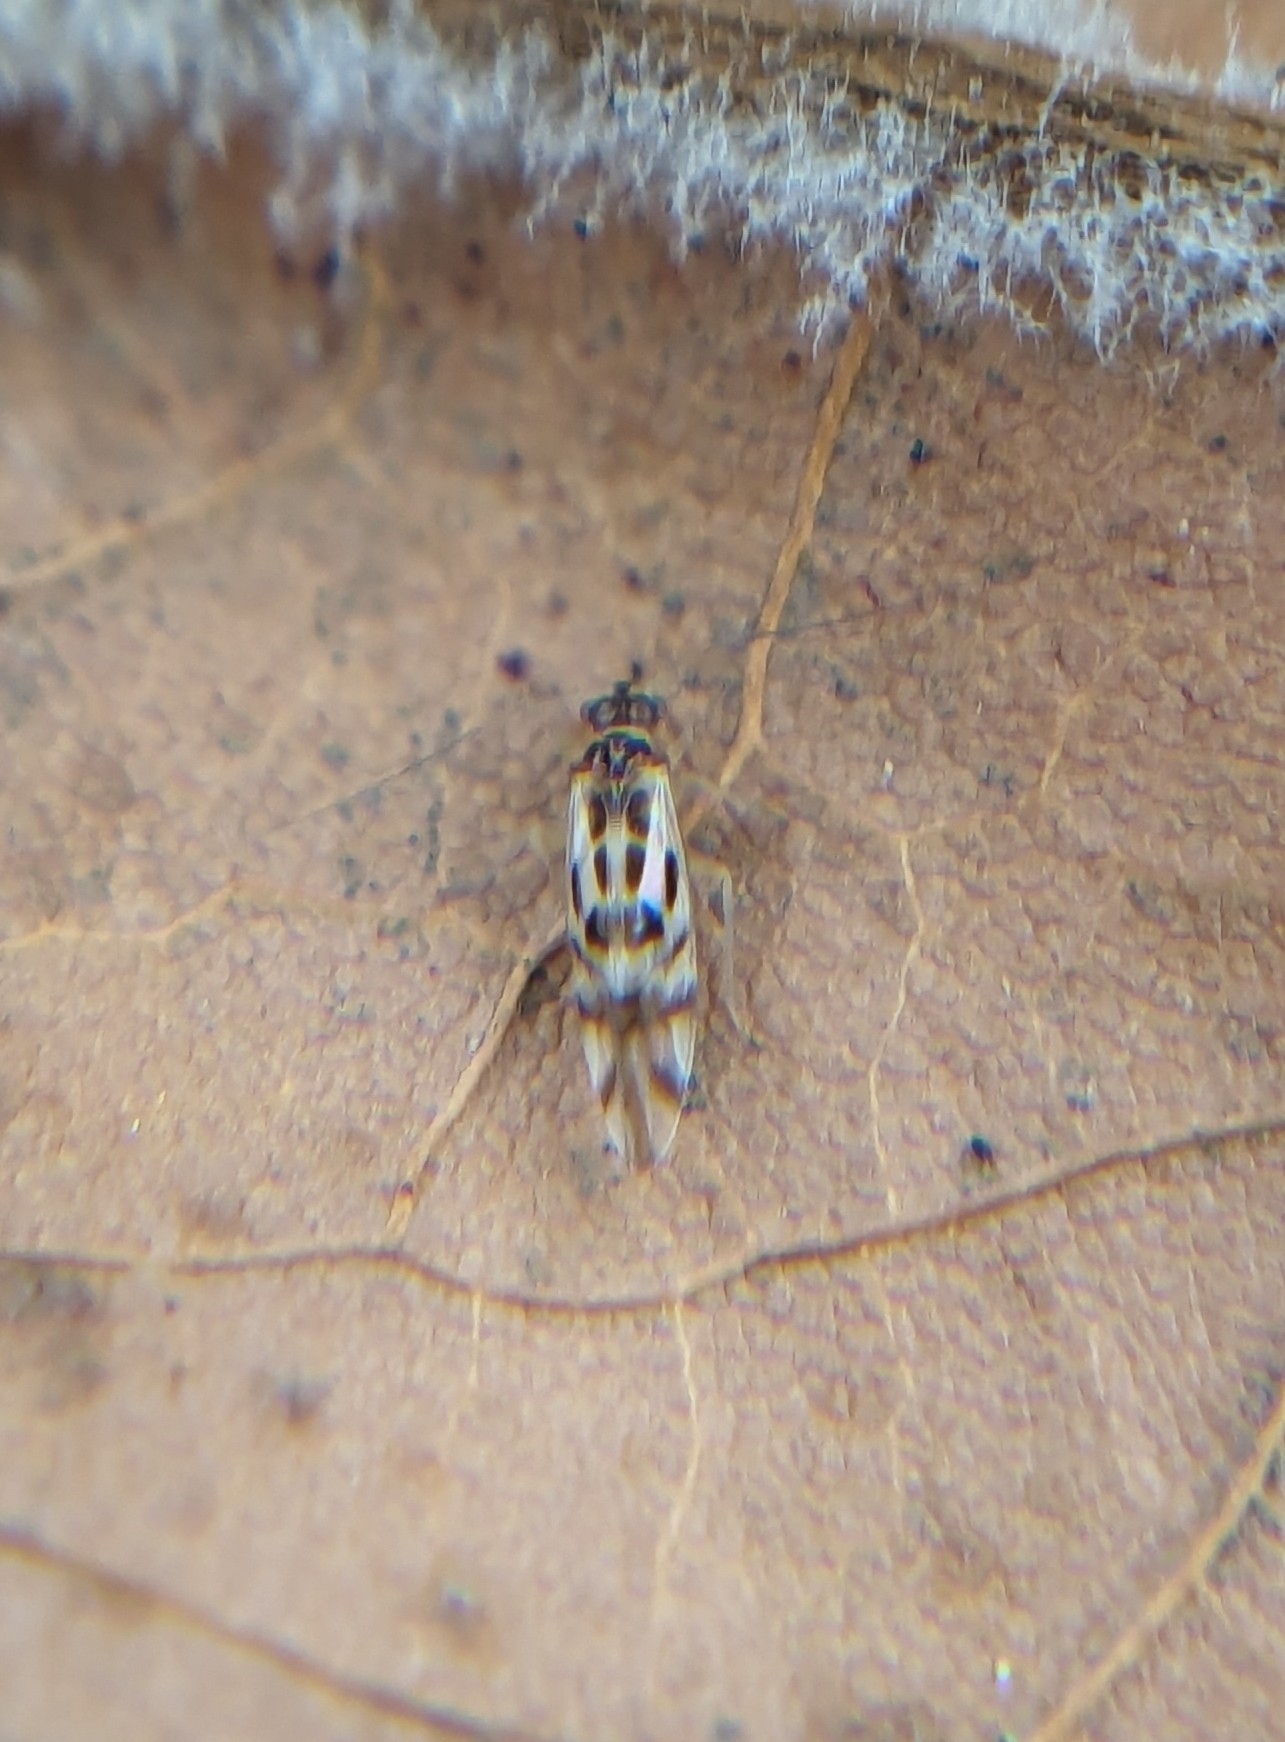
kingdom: Animalia
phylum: Arthropoda
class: Insecta
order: Psocodea
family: Stenopsocidae
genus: Graphopsocus
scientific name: Graphopsocus cruciatus
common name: Lizard bark louse
